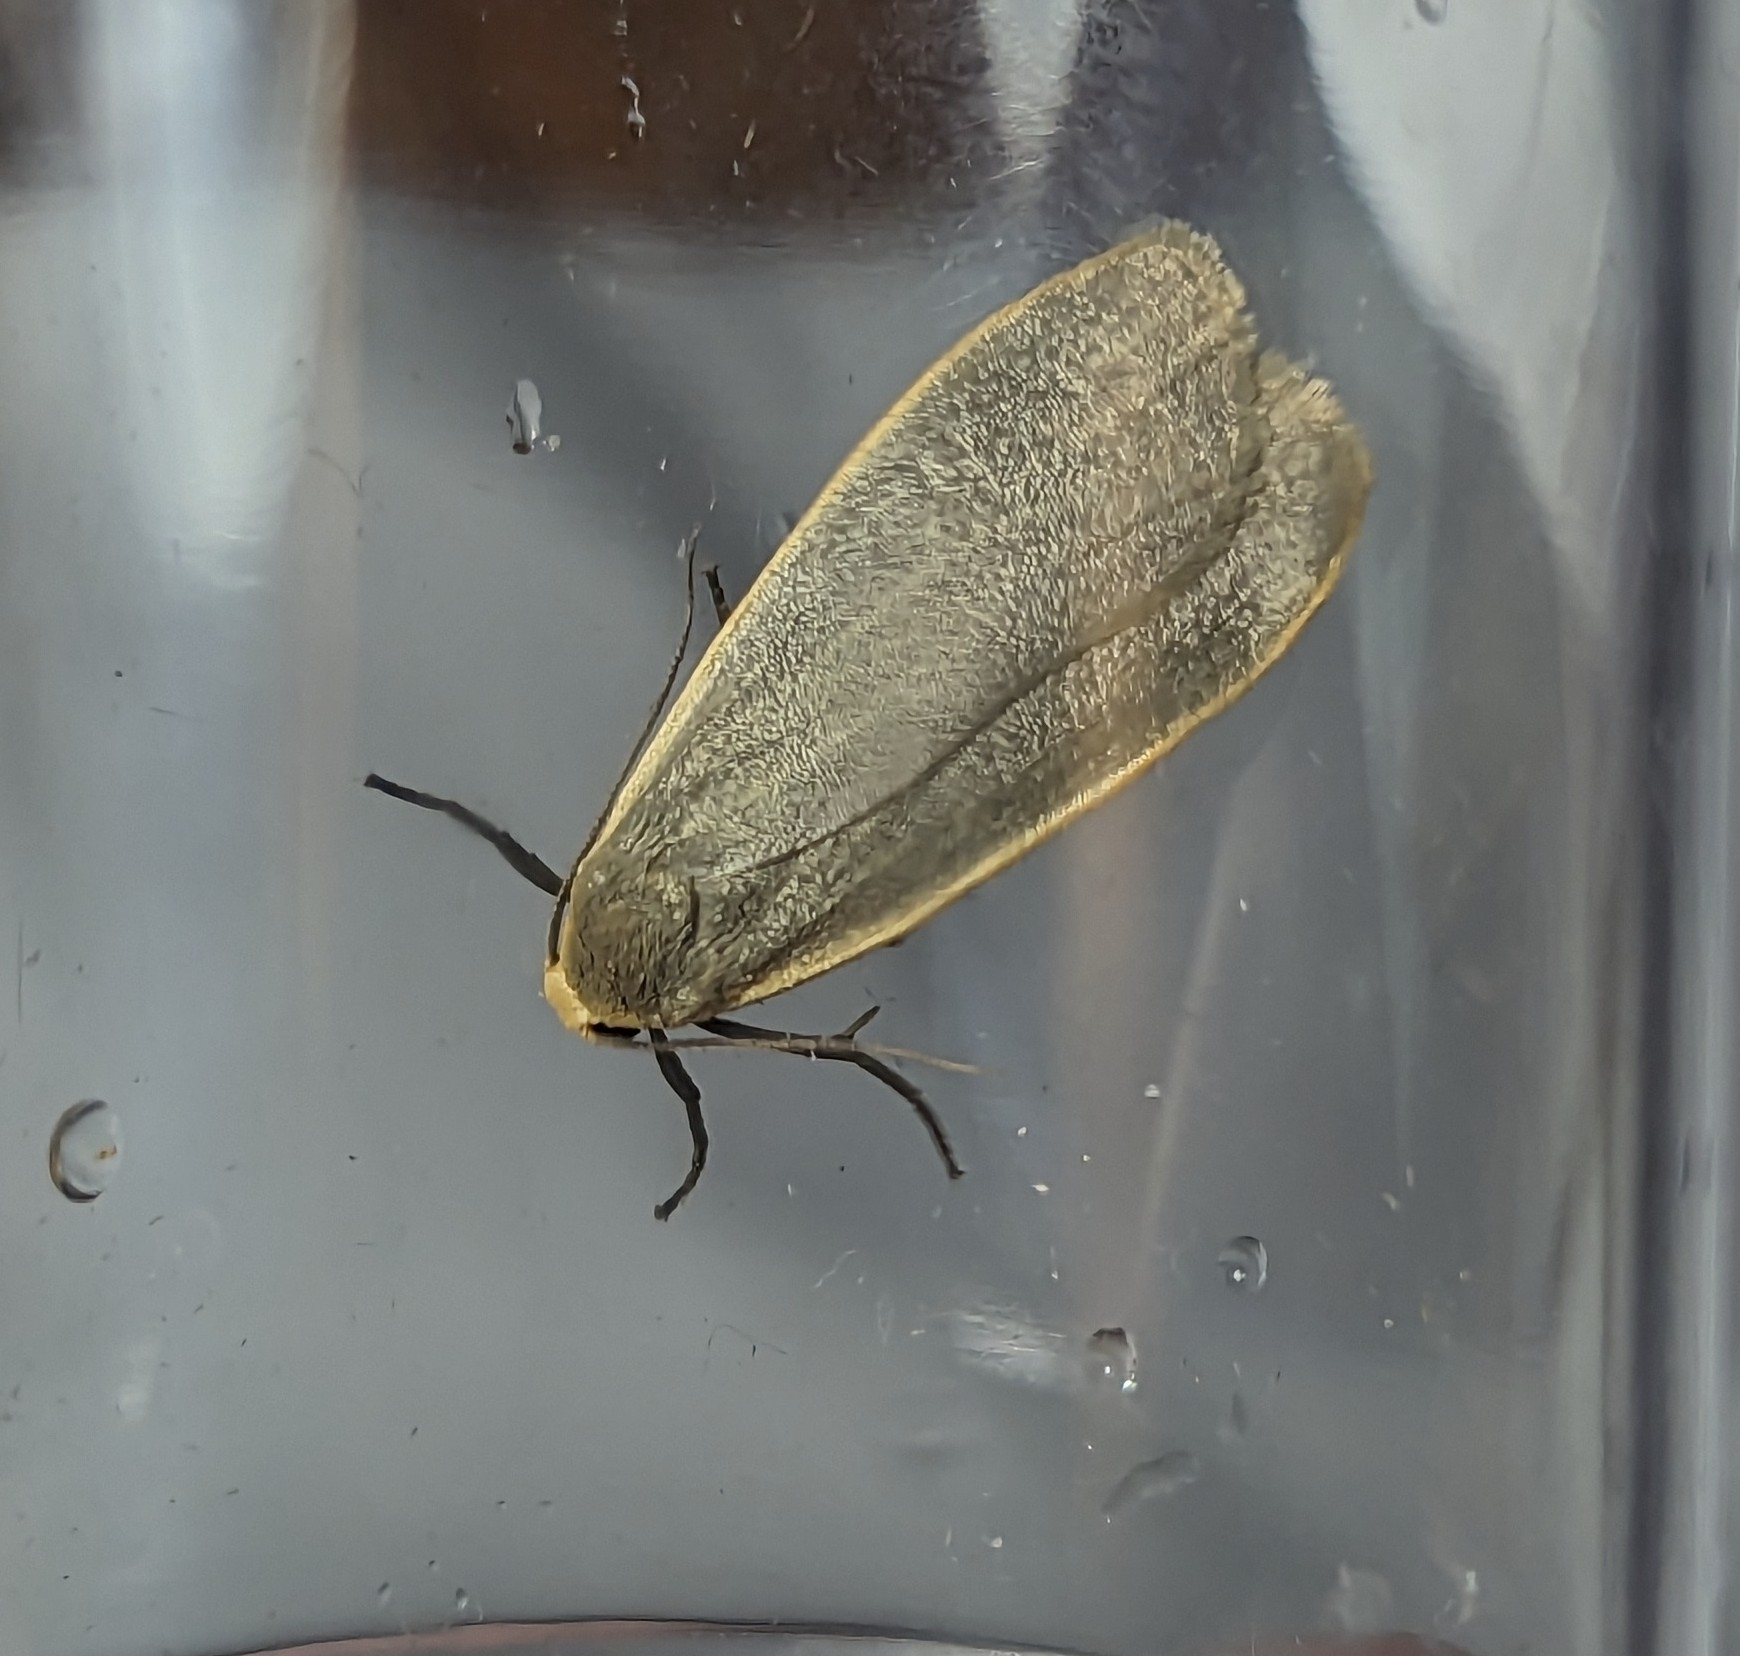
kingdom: Animalia
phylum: Arthropoda
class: Insecta
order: Lepidoptera
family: Erebidae
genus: Collita
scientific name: Collita griseola
